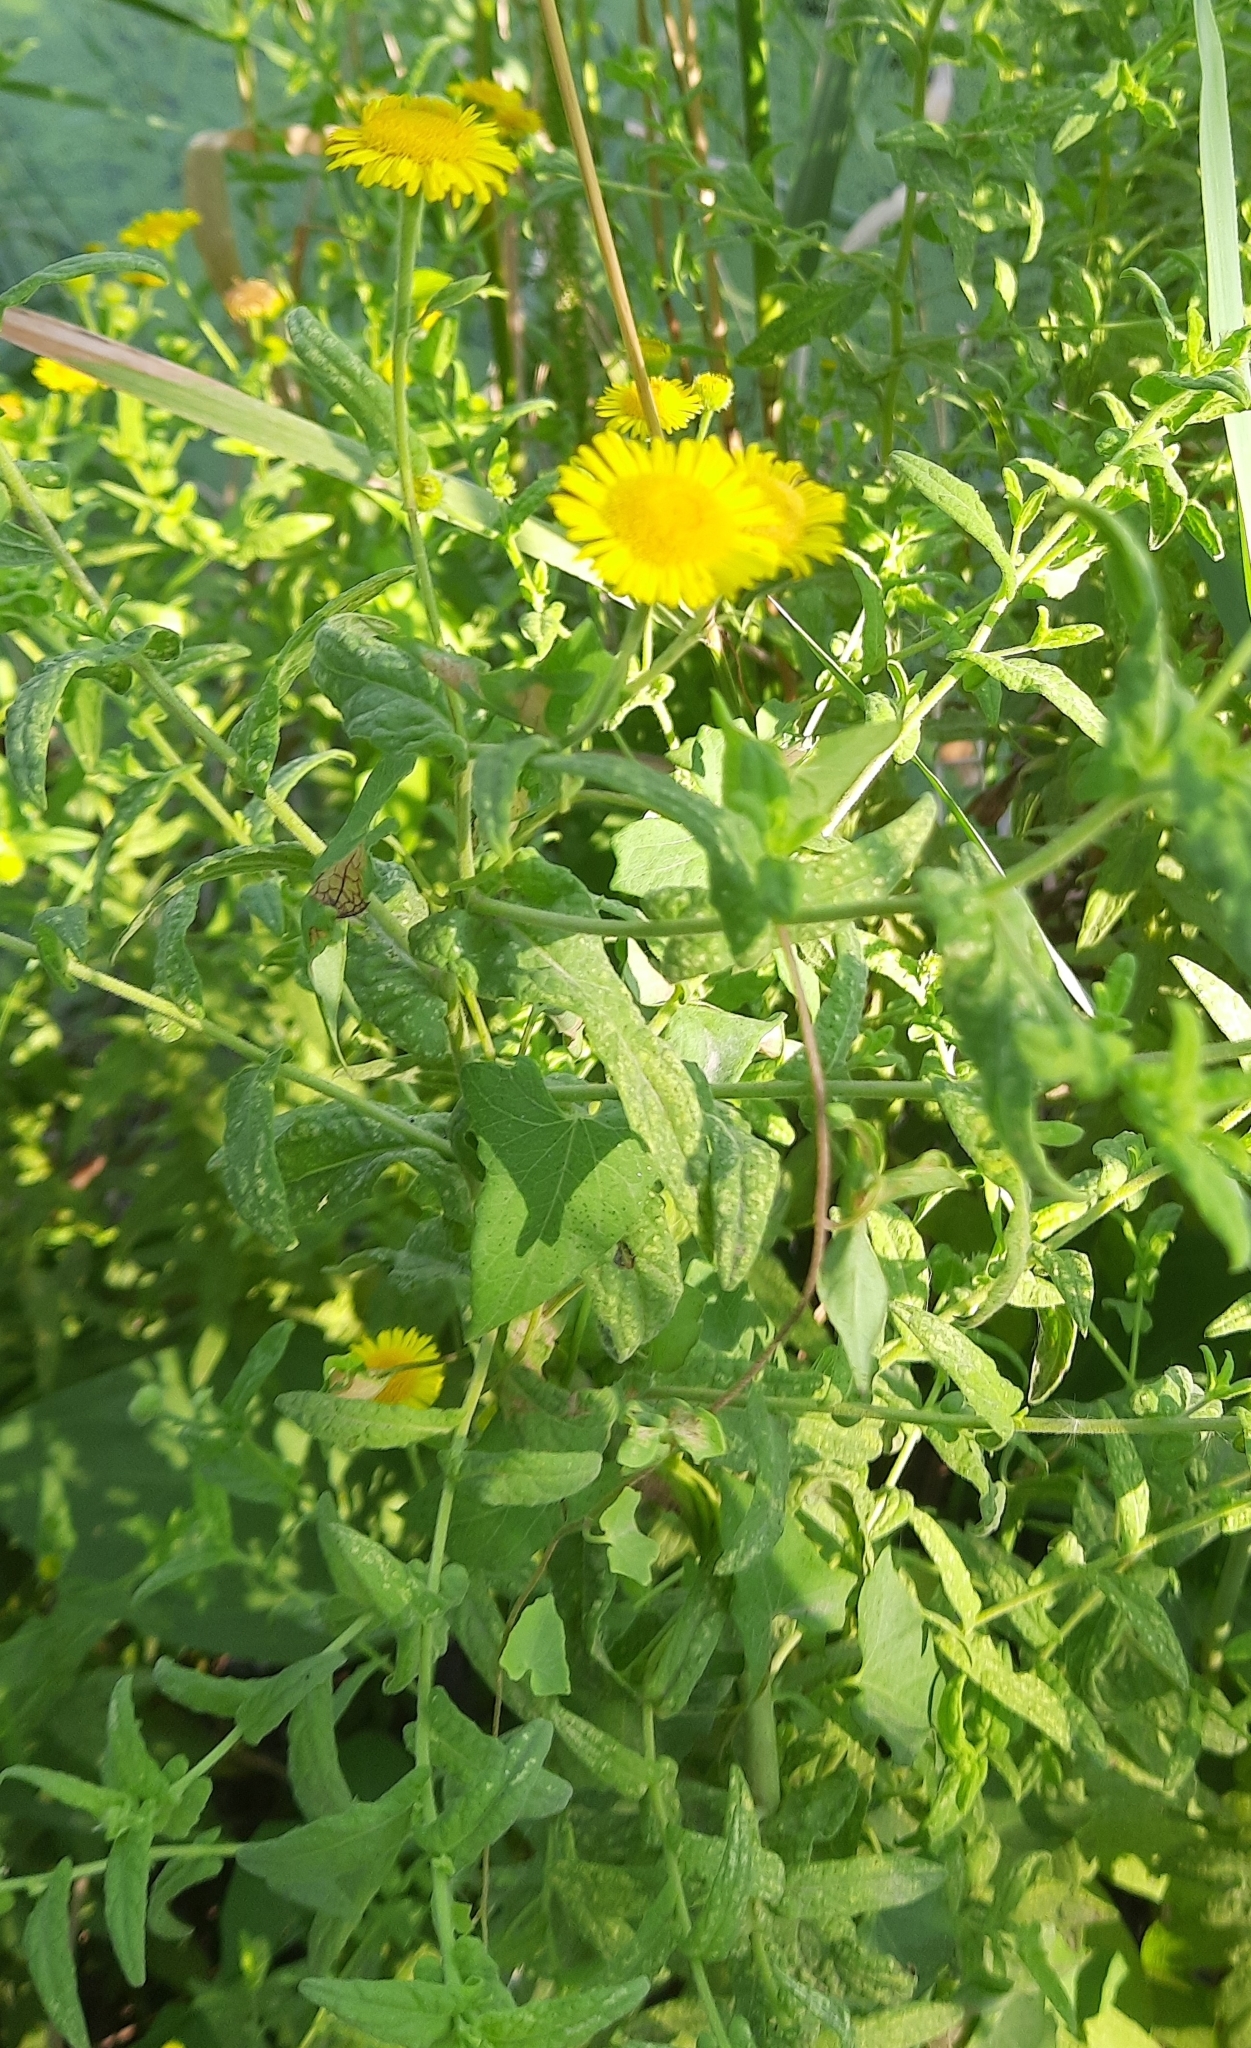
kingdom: Plantae
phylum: Tracheophyta
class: Magnoliopsida
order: Asterales
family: Asteraceae
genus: Pulicaria
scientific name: Pulicaria dysenterica
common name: Common fleabane
